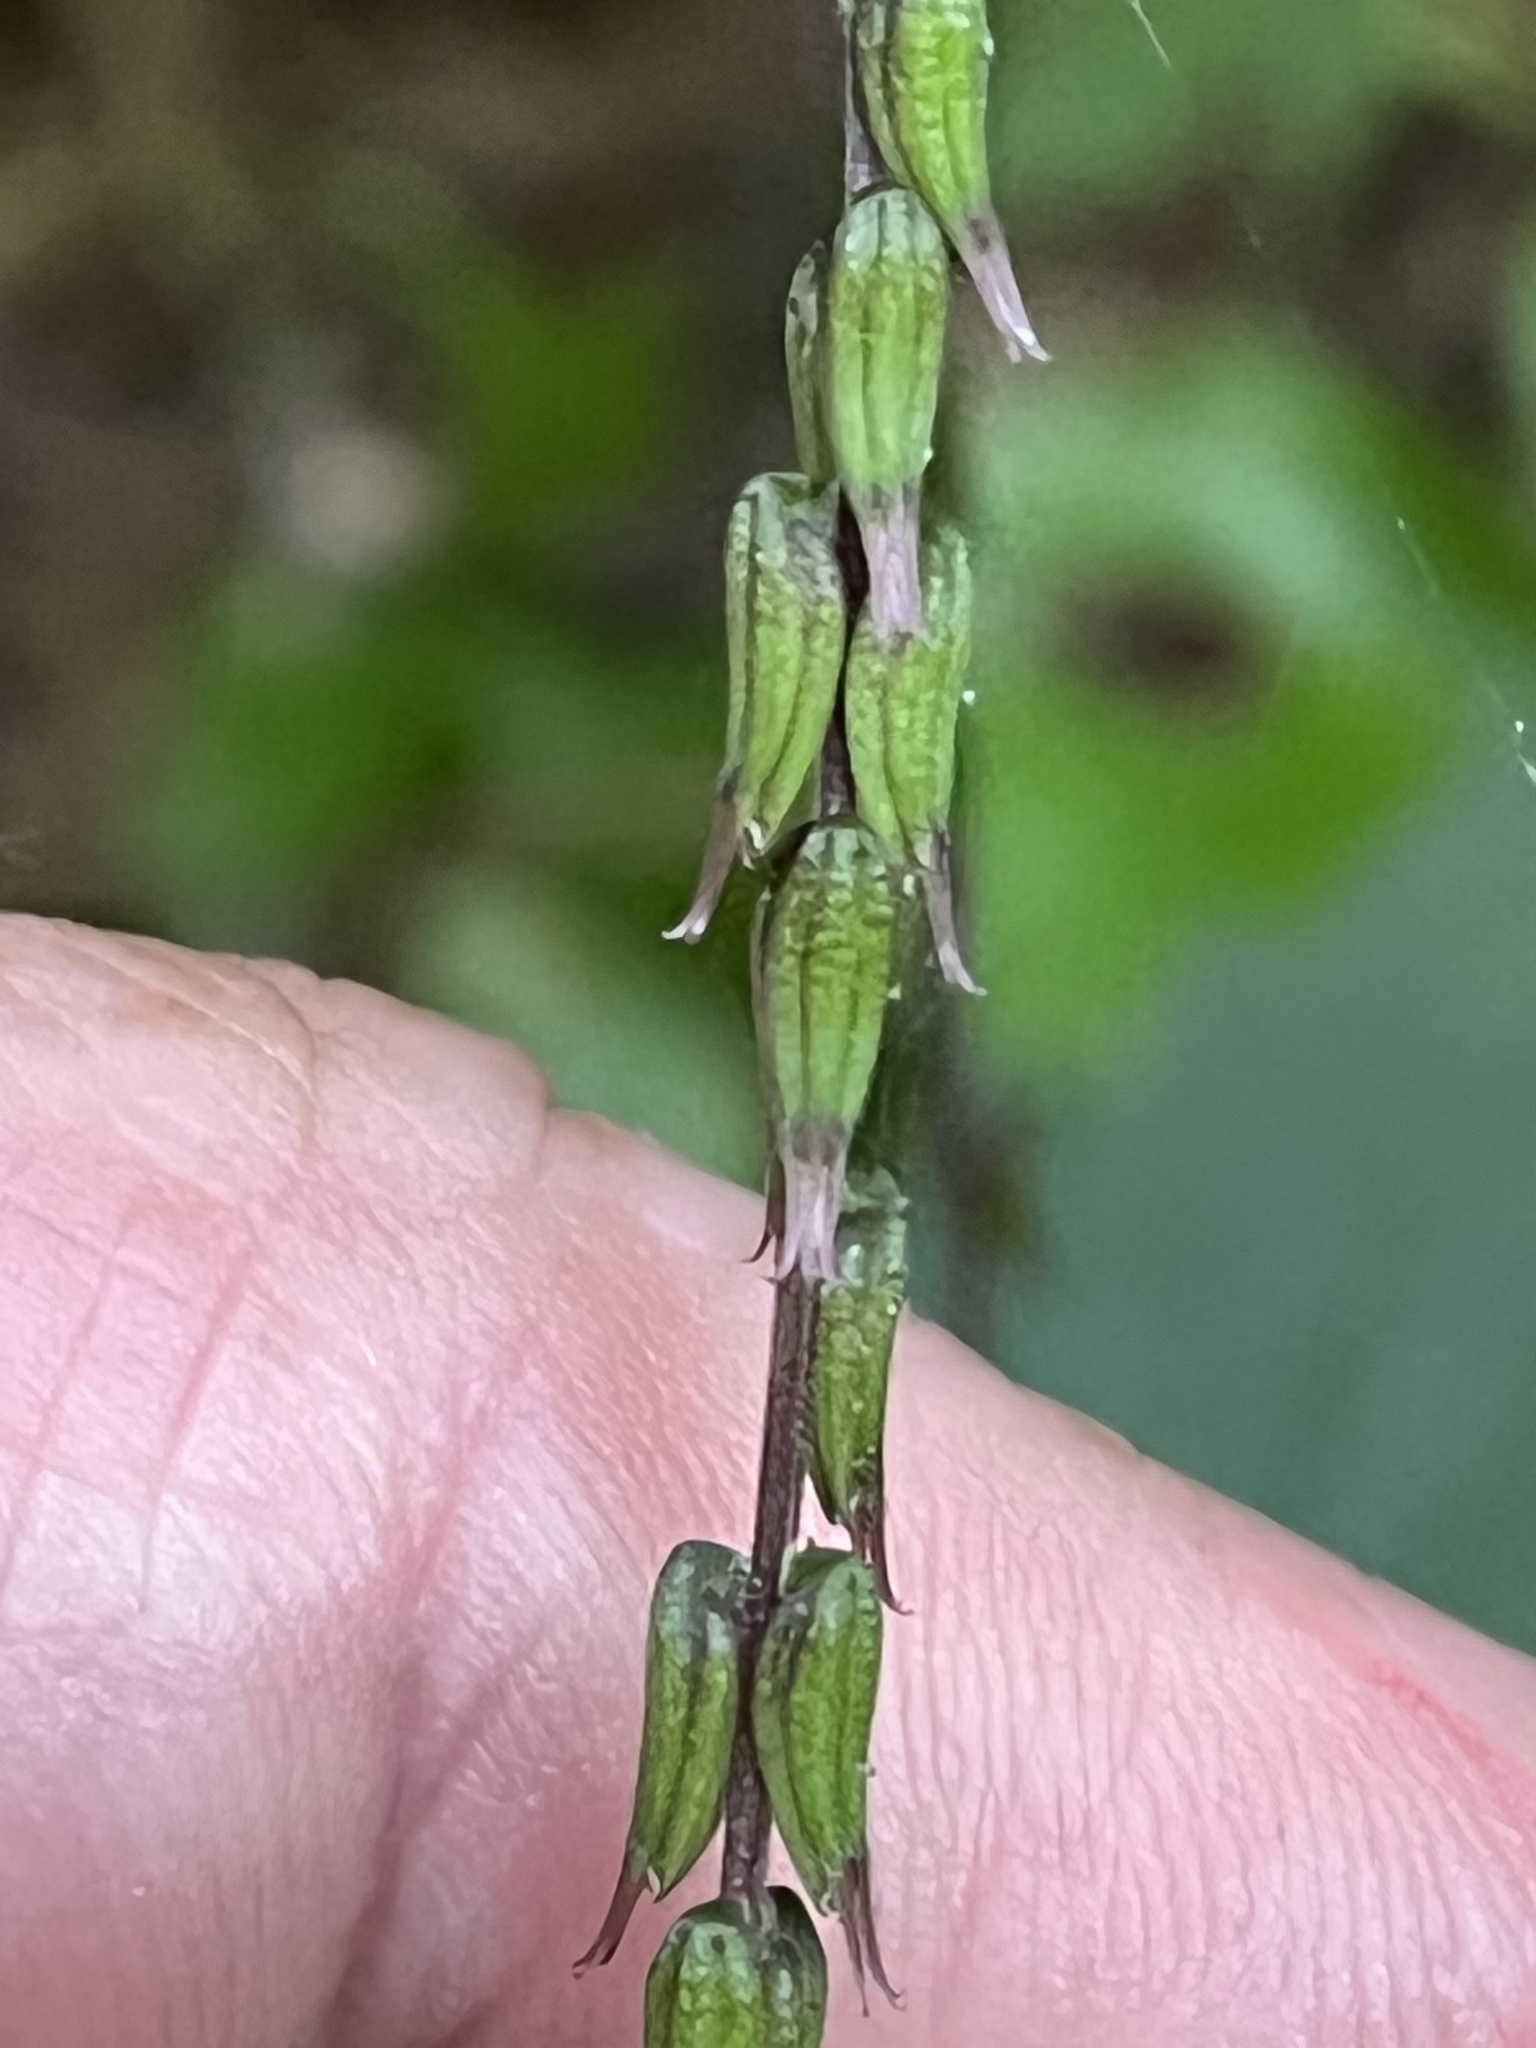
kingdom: Plantae
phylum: Tracheophyta
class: Magnoliopsida
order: Lamiales
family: Phrymaceae
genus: Phryma
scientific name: Phryma leptostachya
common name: American lopseed
